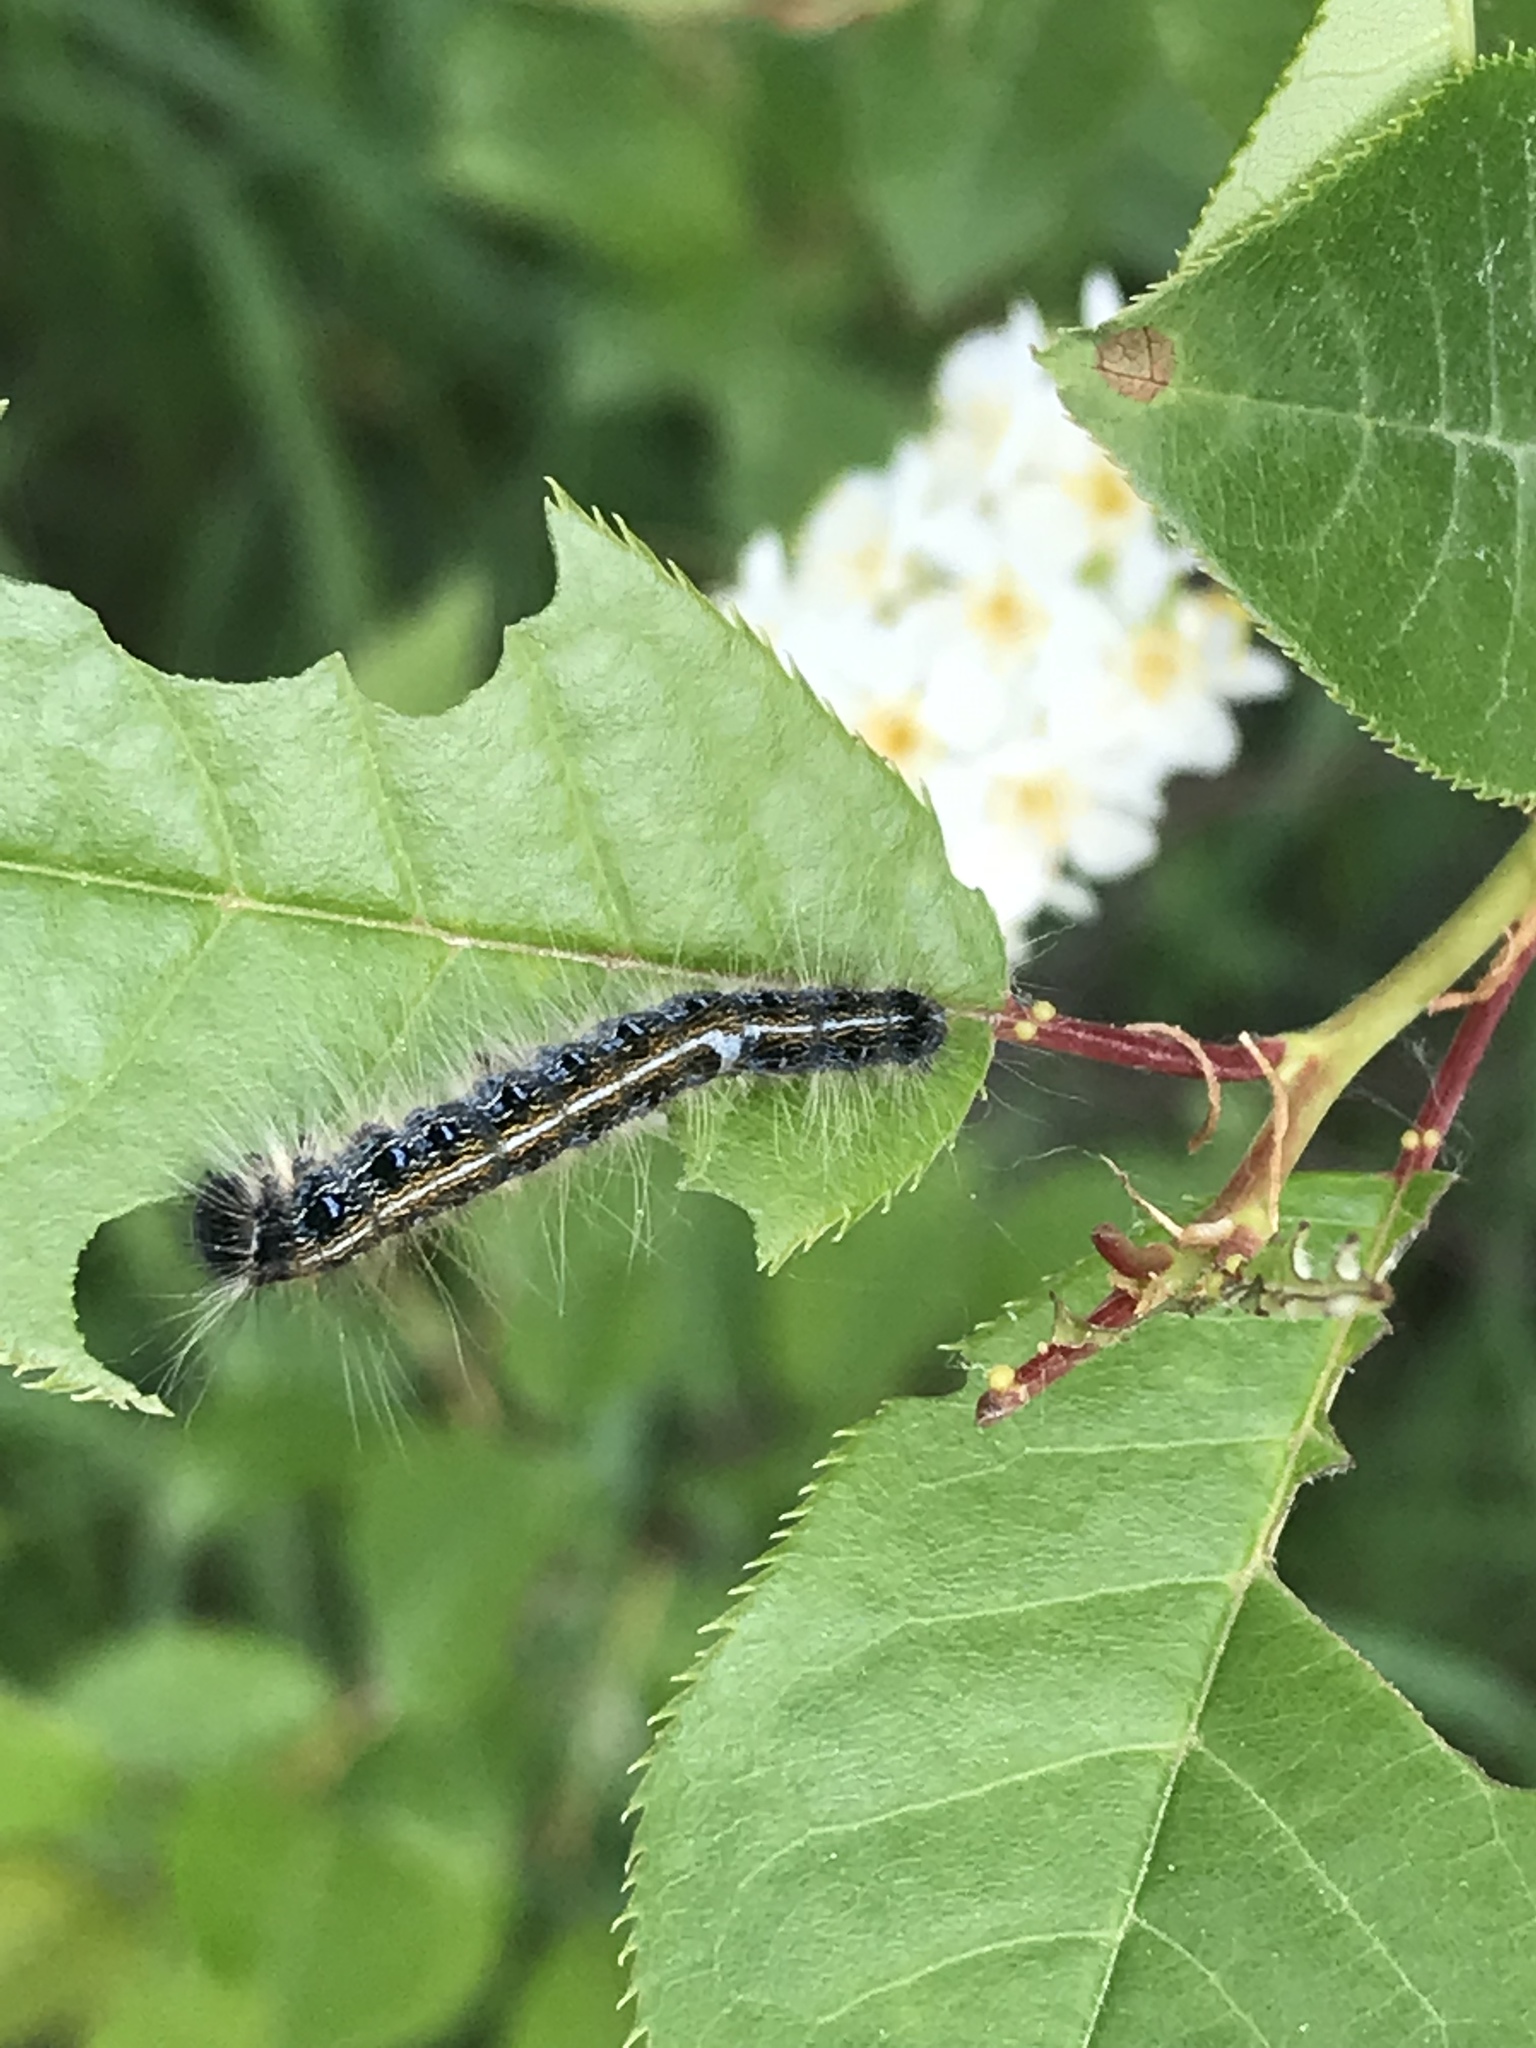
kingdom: Animalia
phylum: Arthropoda
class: Insecta
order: Lepidoptera
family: Lasiocampidae
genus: Malacosoma
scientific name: Malacosoma americana
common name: Eastern tent caterpillar moth
